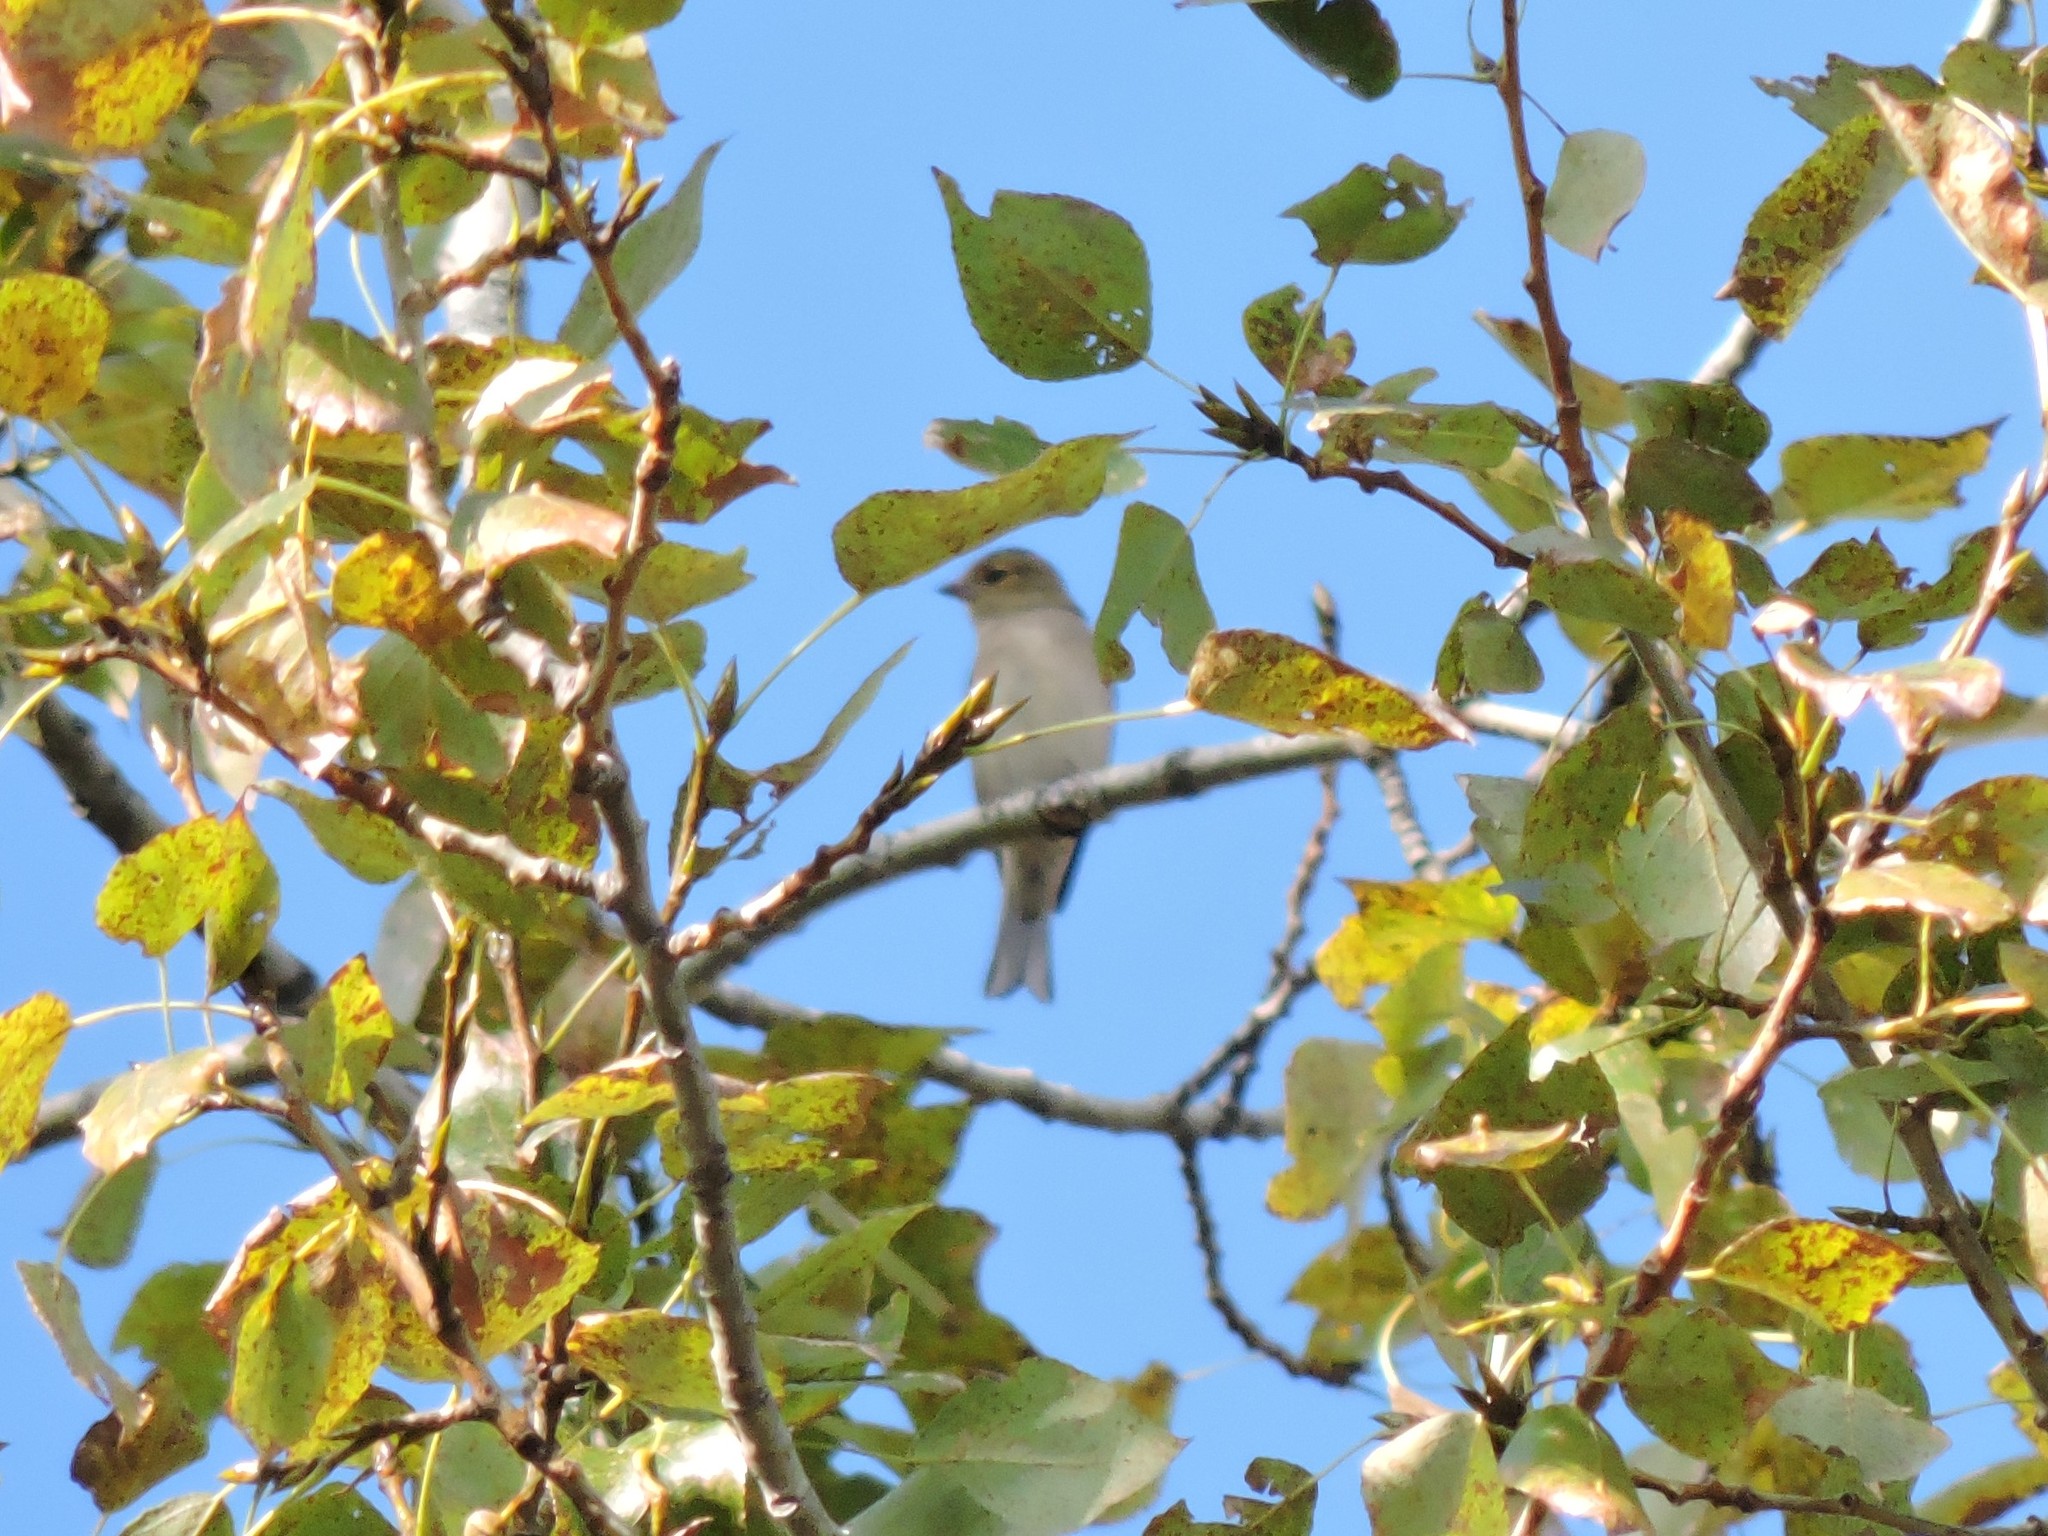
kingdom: Animalia
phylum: Chordata
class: Aves
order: Passeriformes
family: Fringillidae
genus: Fringilla
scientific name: Fringilla coelebs
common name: Common chaffinch
